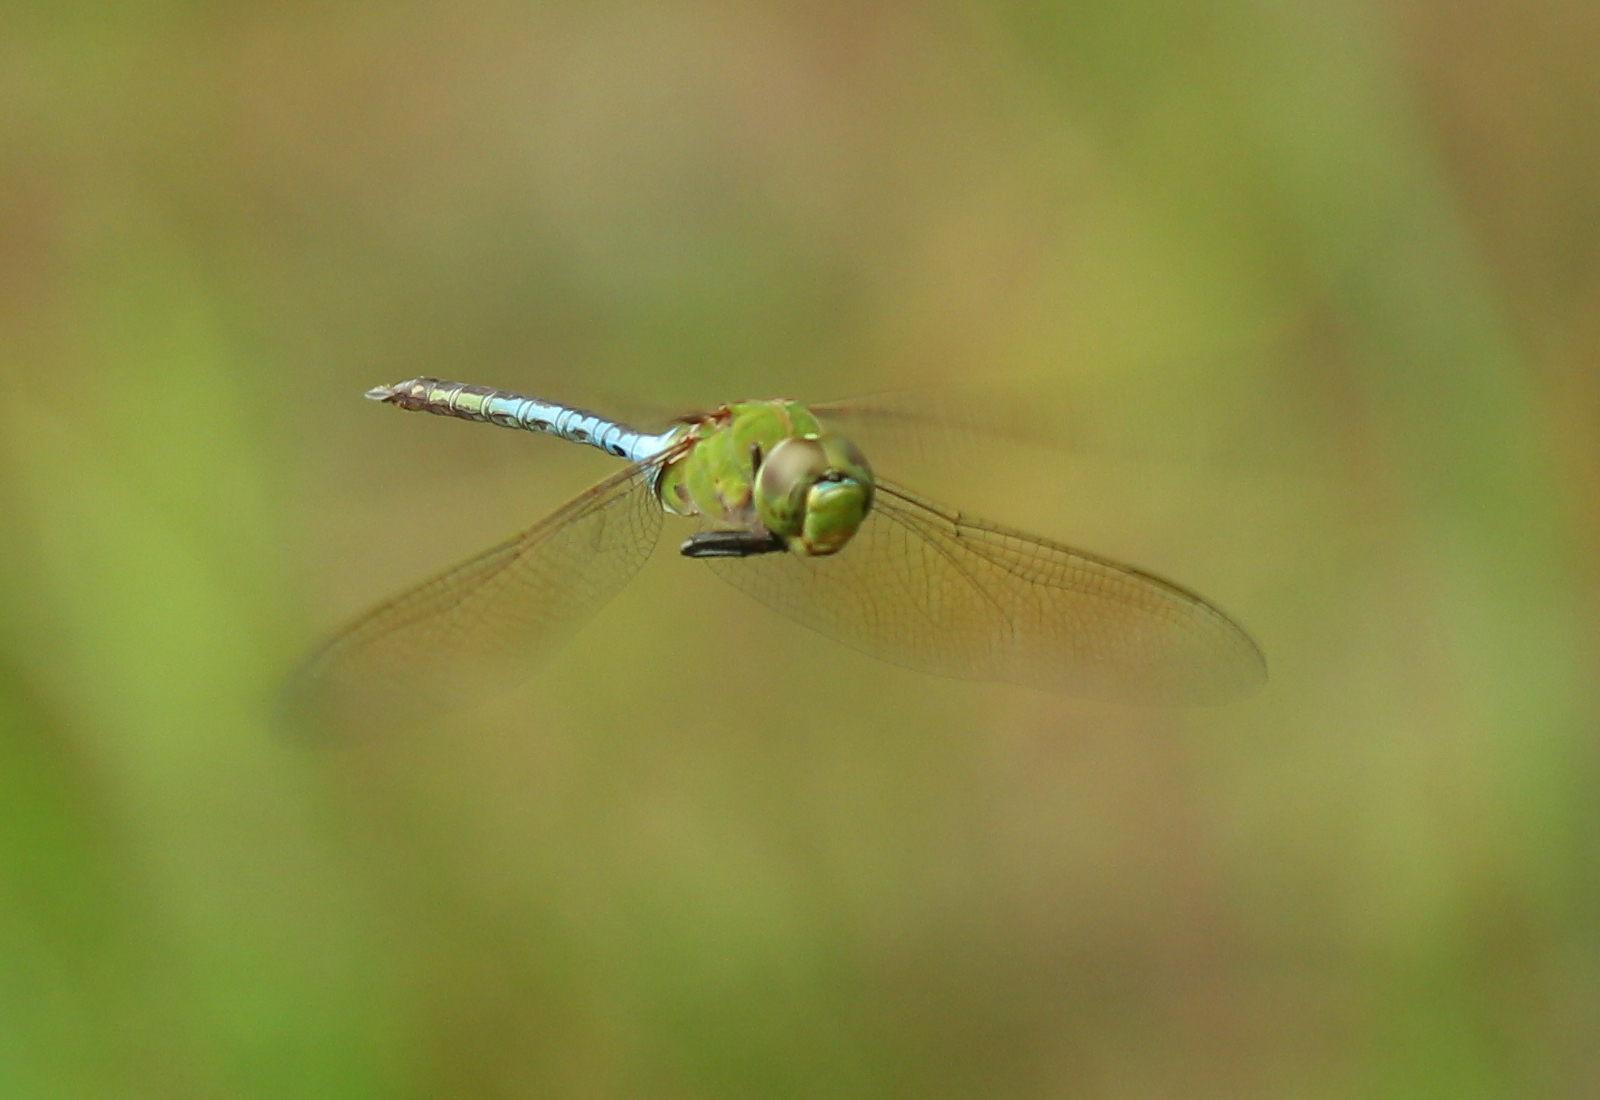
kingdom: Animalia
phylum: Arthropoda
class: Insecta
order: Odonata
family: Aeshnidae
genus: Anax
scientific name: Anax junius
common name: Common green darner
